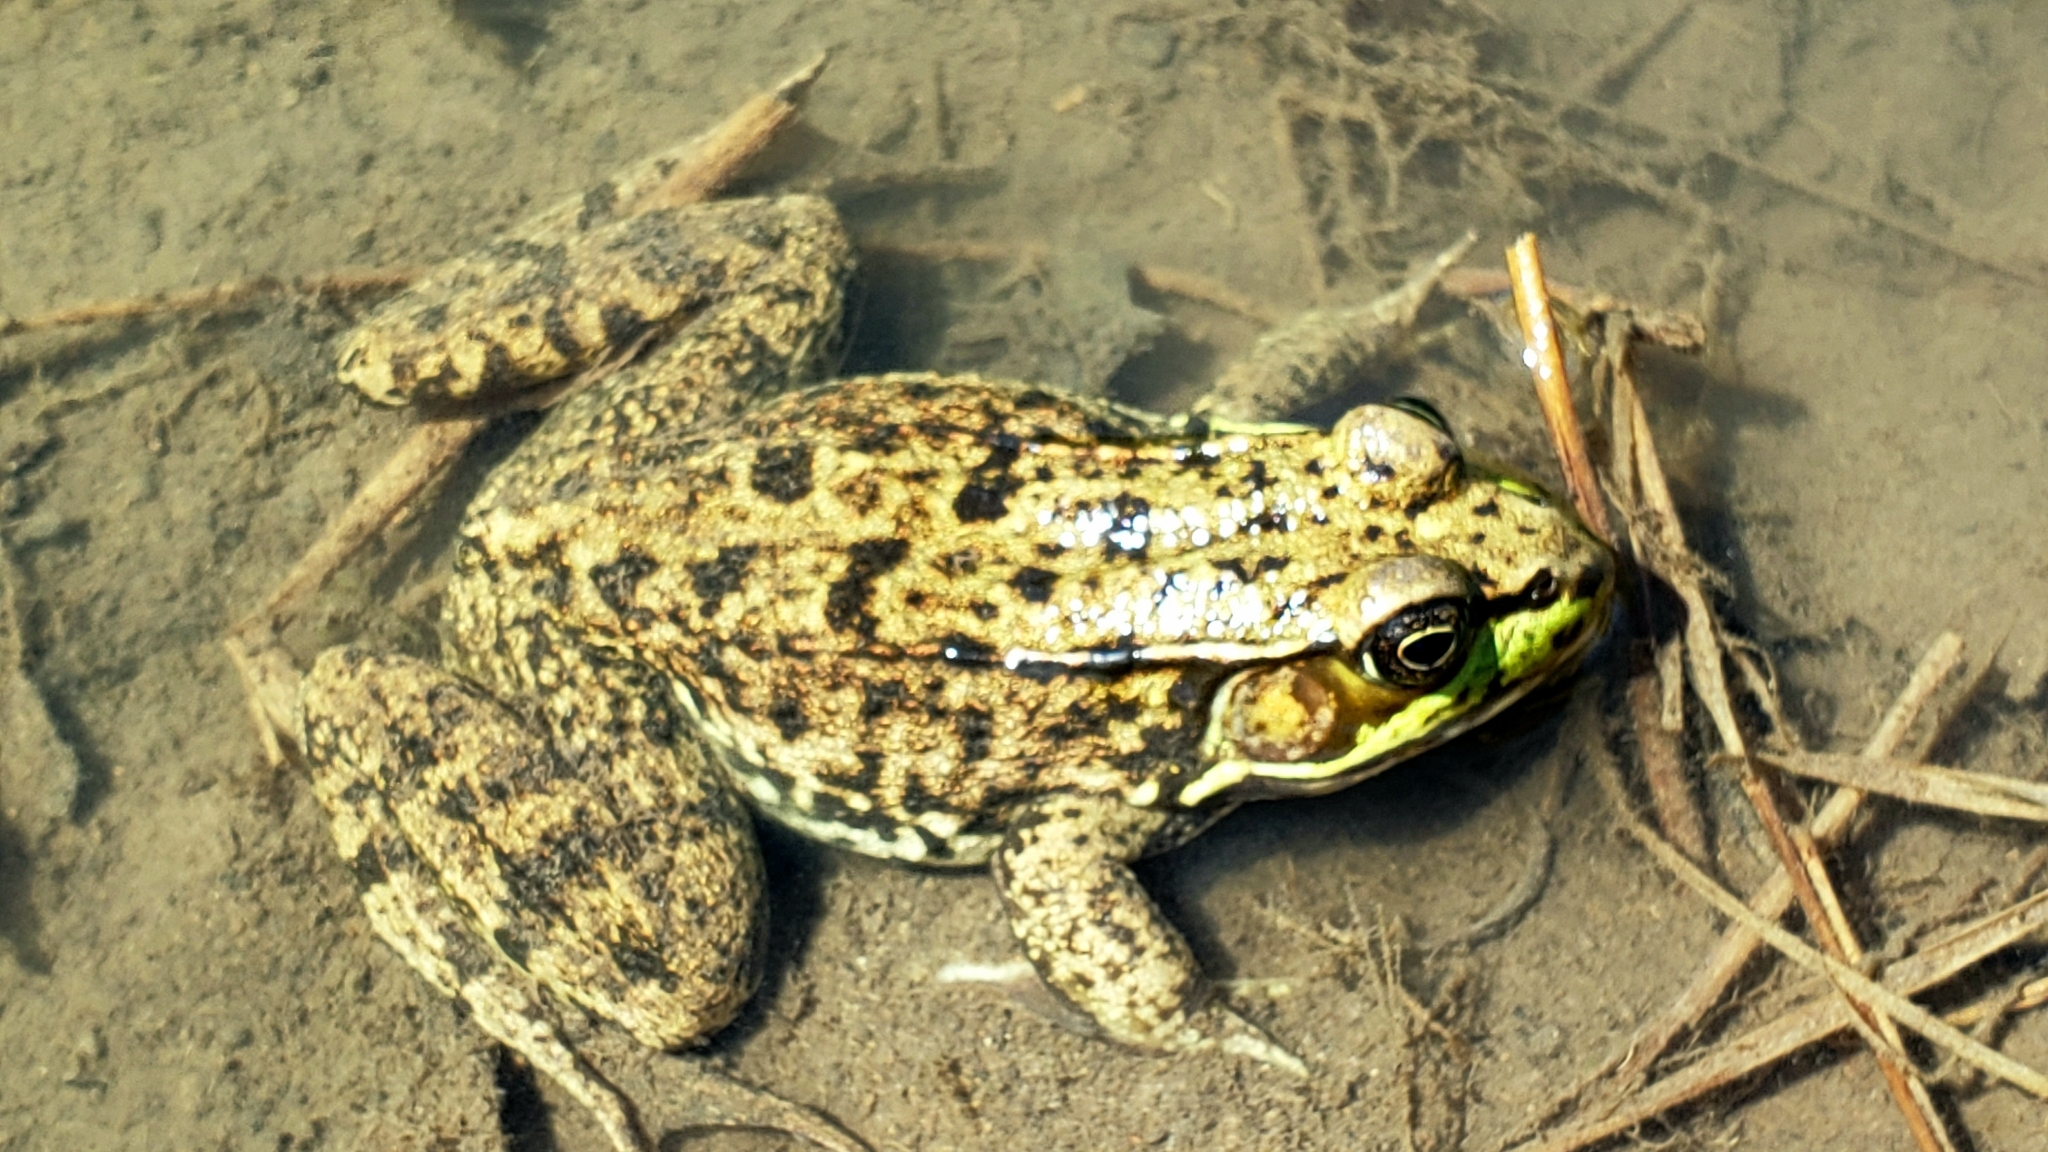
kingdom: Animalia
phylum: Chordata
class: Amphibia
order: Anura
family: Ranidae
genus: Lithobates
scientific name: Lithobates clamitans
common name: Green frog
